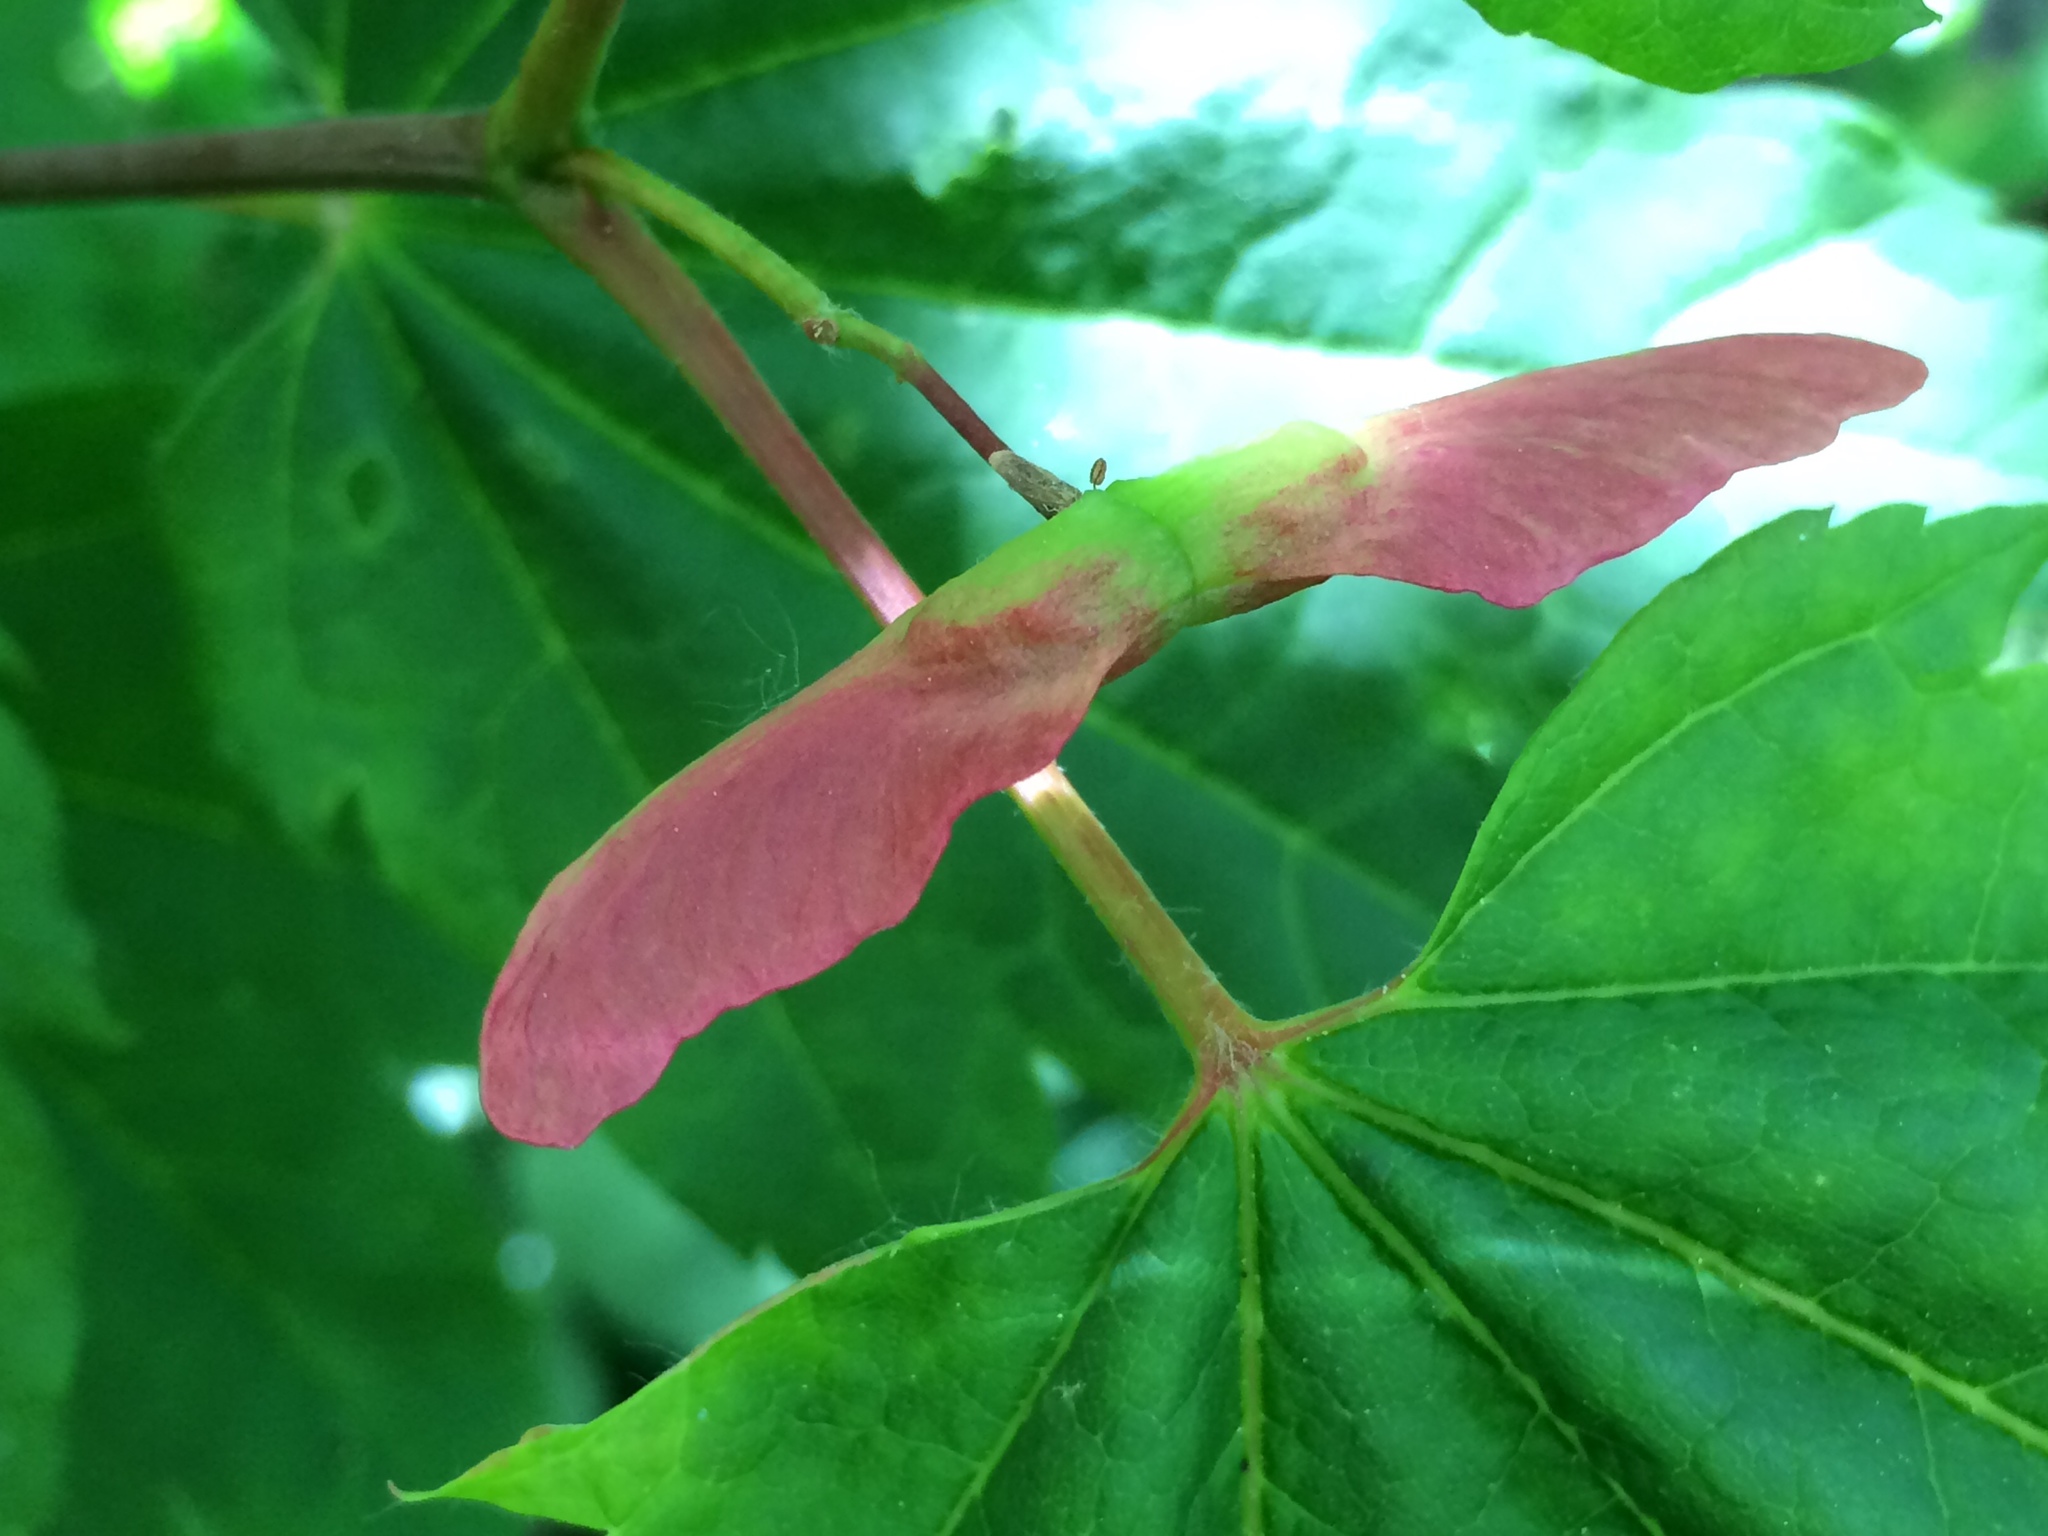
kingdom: Plantae
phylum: Tracheophyta
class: Magnoliopsida
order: Sapindales
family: Sapindaceae
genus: Acer
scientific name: Acer circinatum
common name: Vine maple
